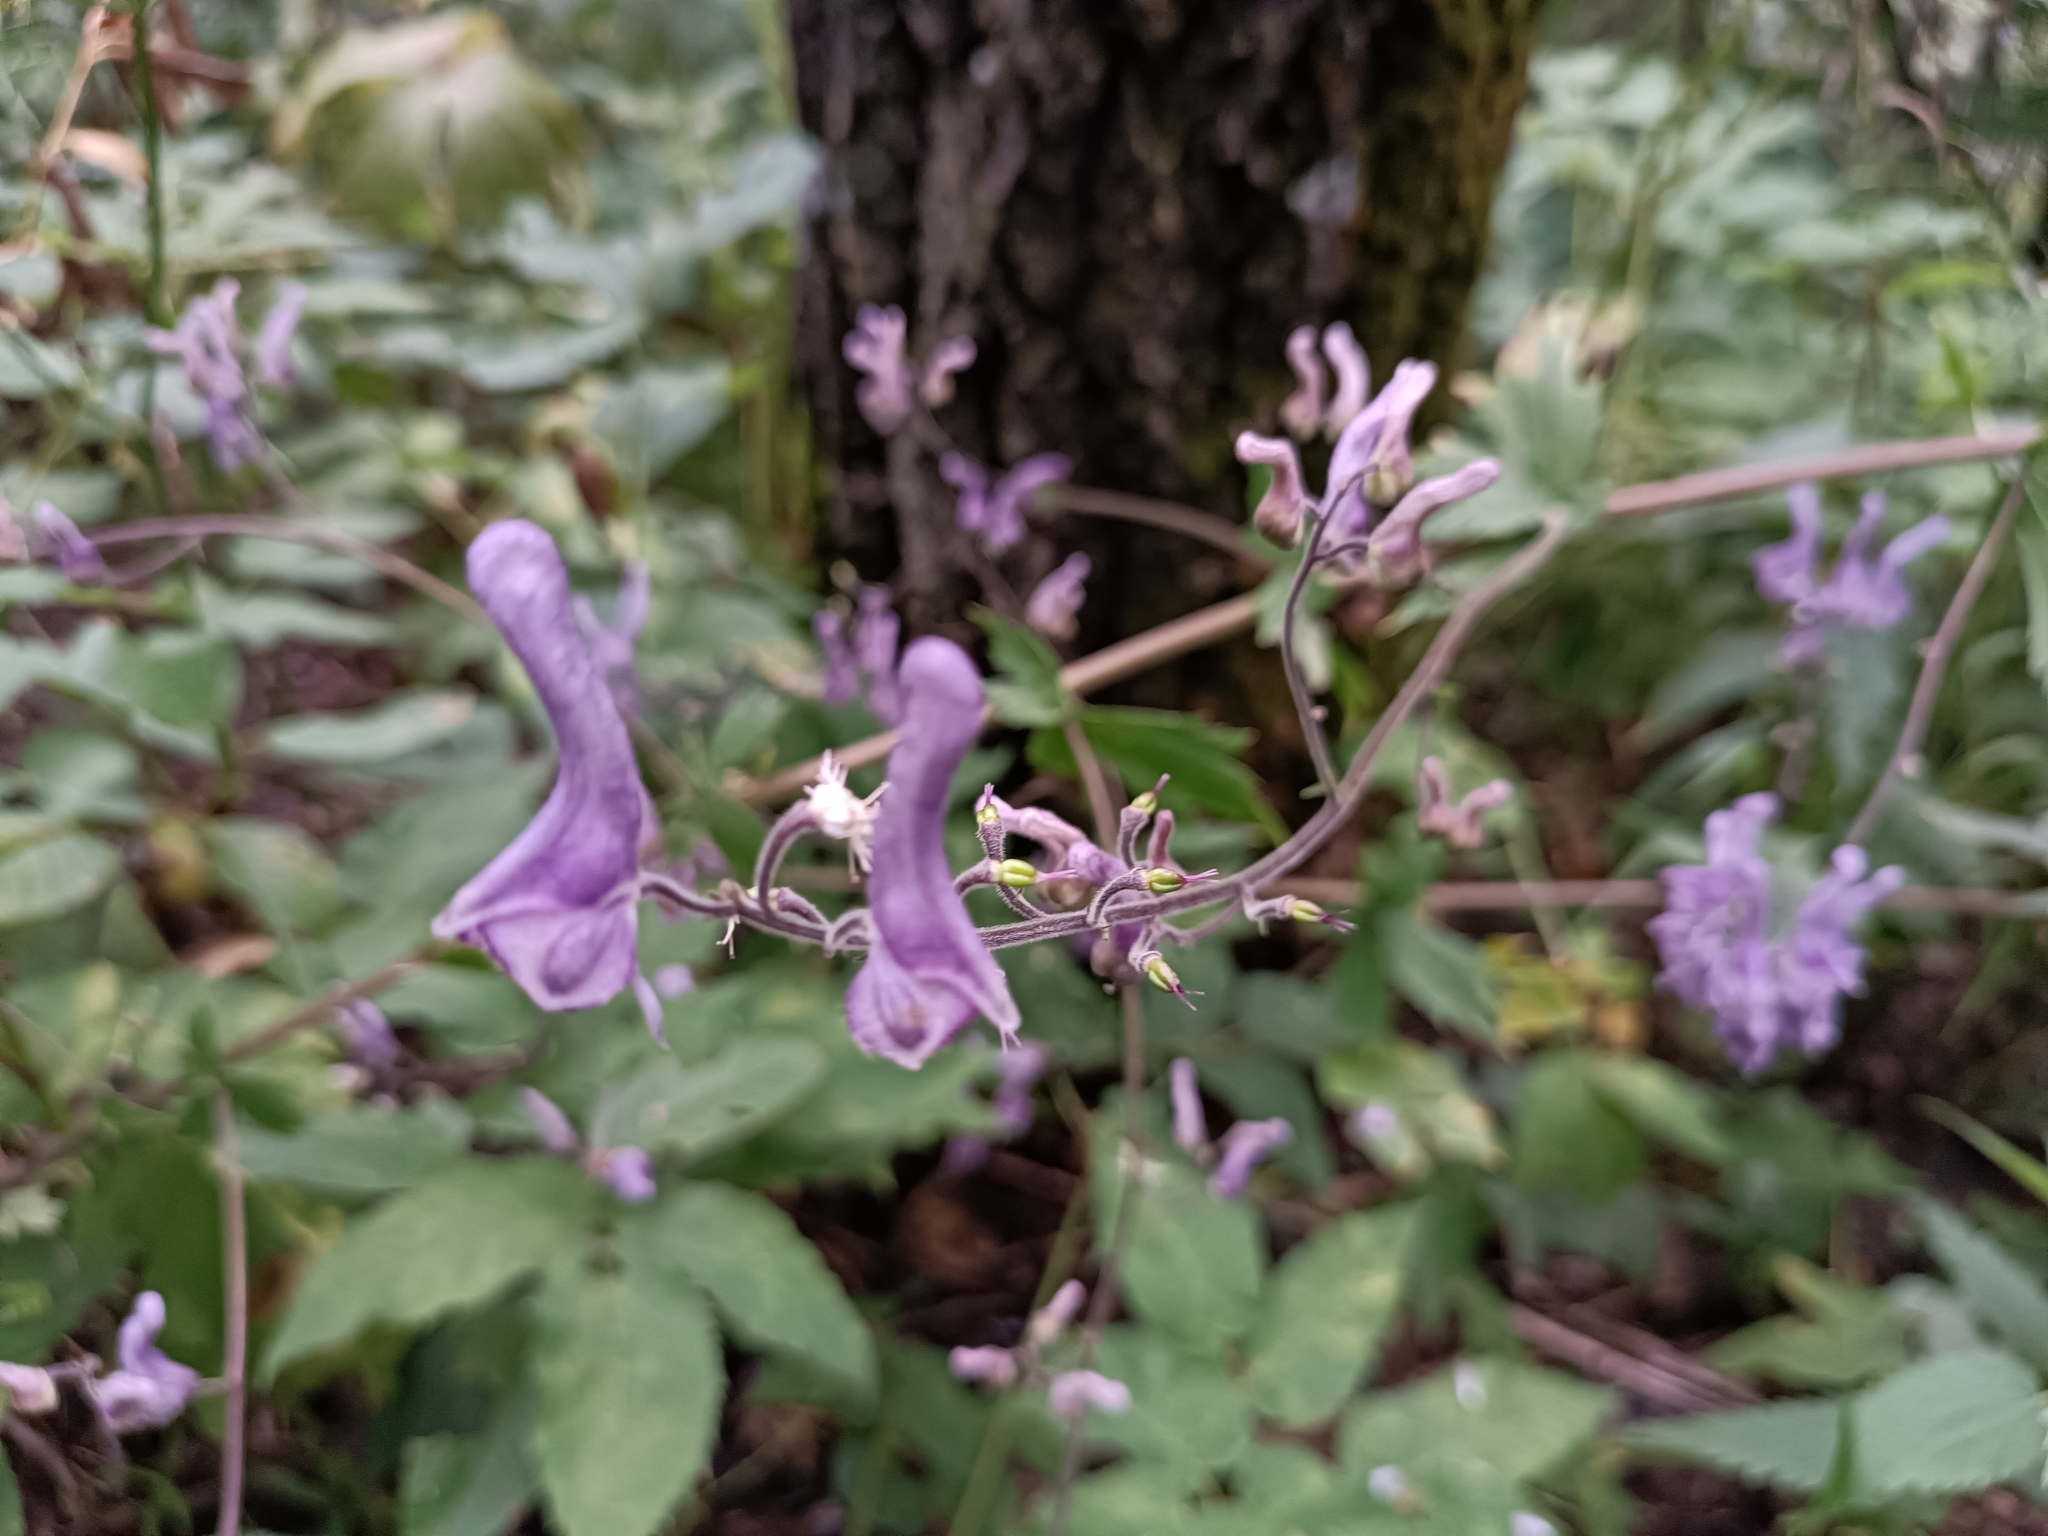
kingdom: Plantae
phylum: Tracheophyta
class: Magnoliopsida
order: Ranunculales
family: Ranunculaceae
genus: Aconitum
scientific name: Aconitum septentrionale
